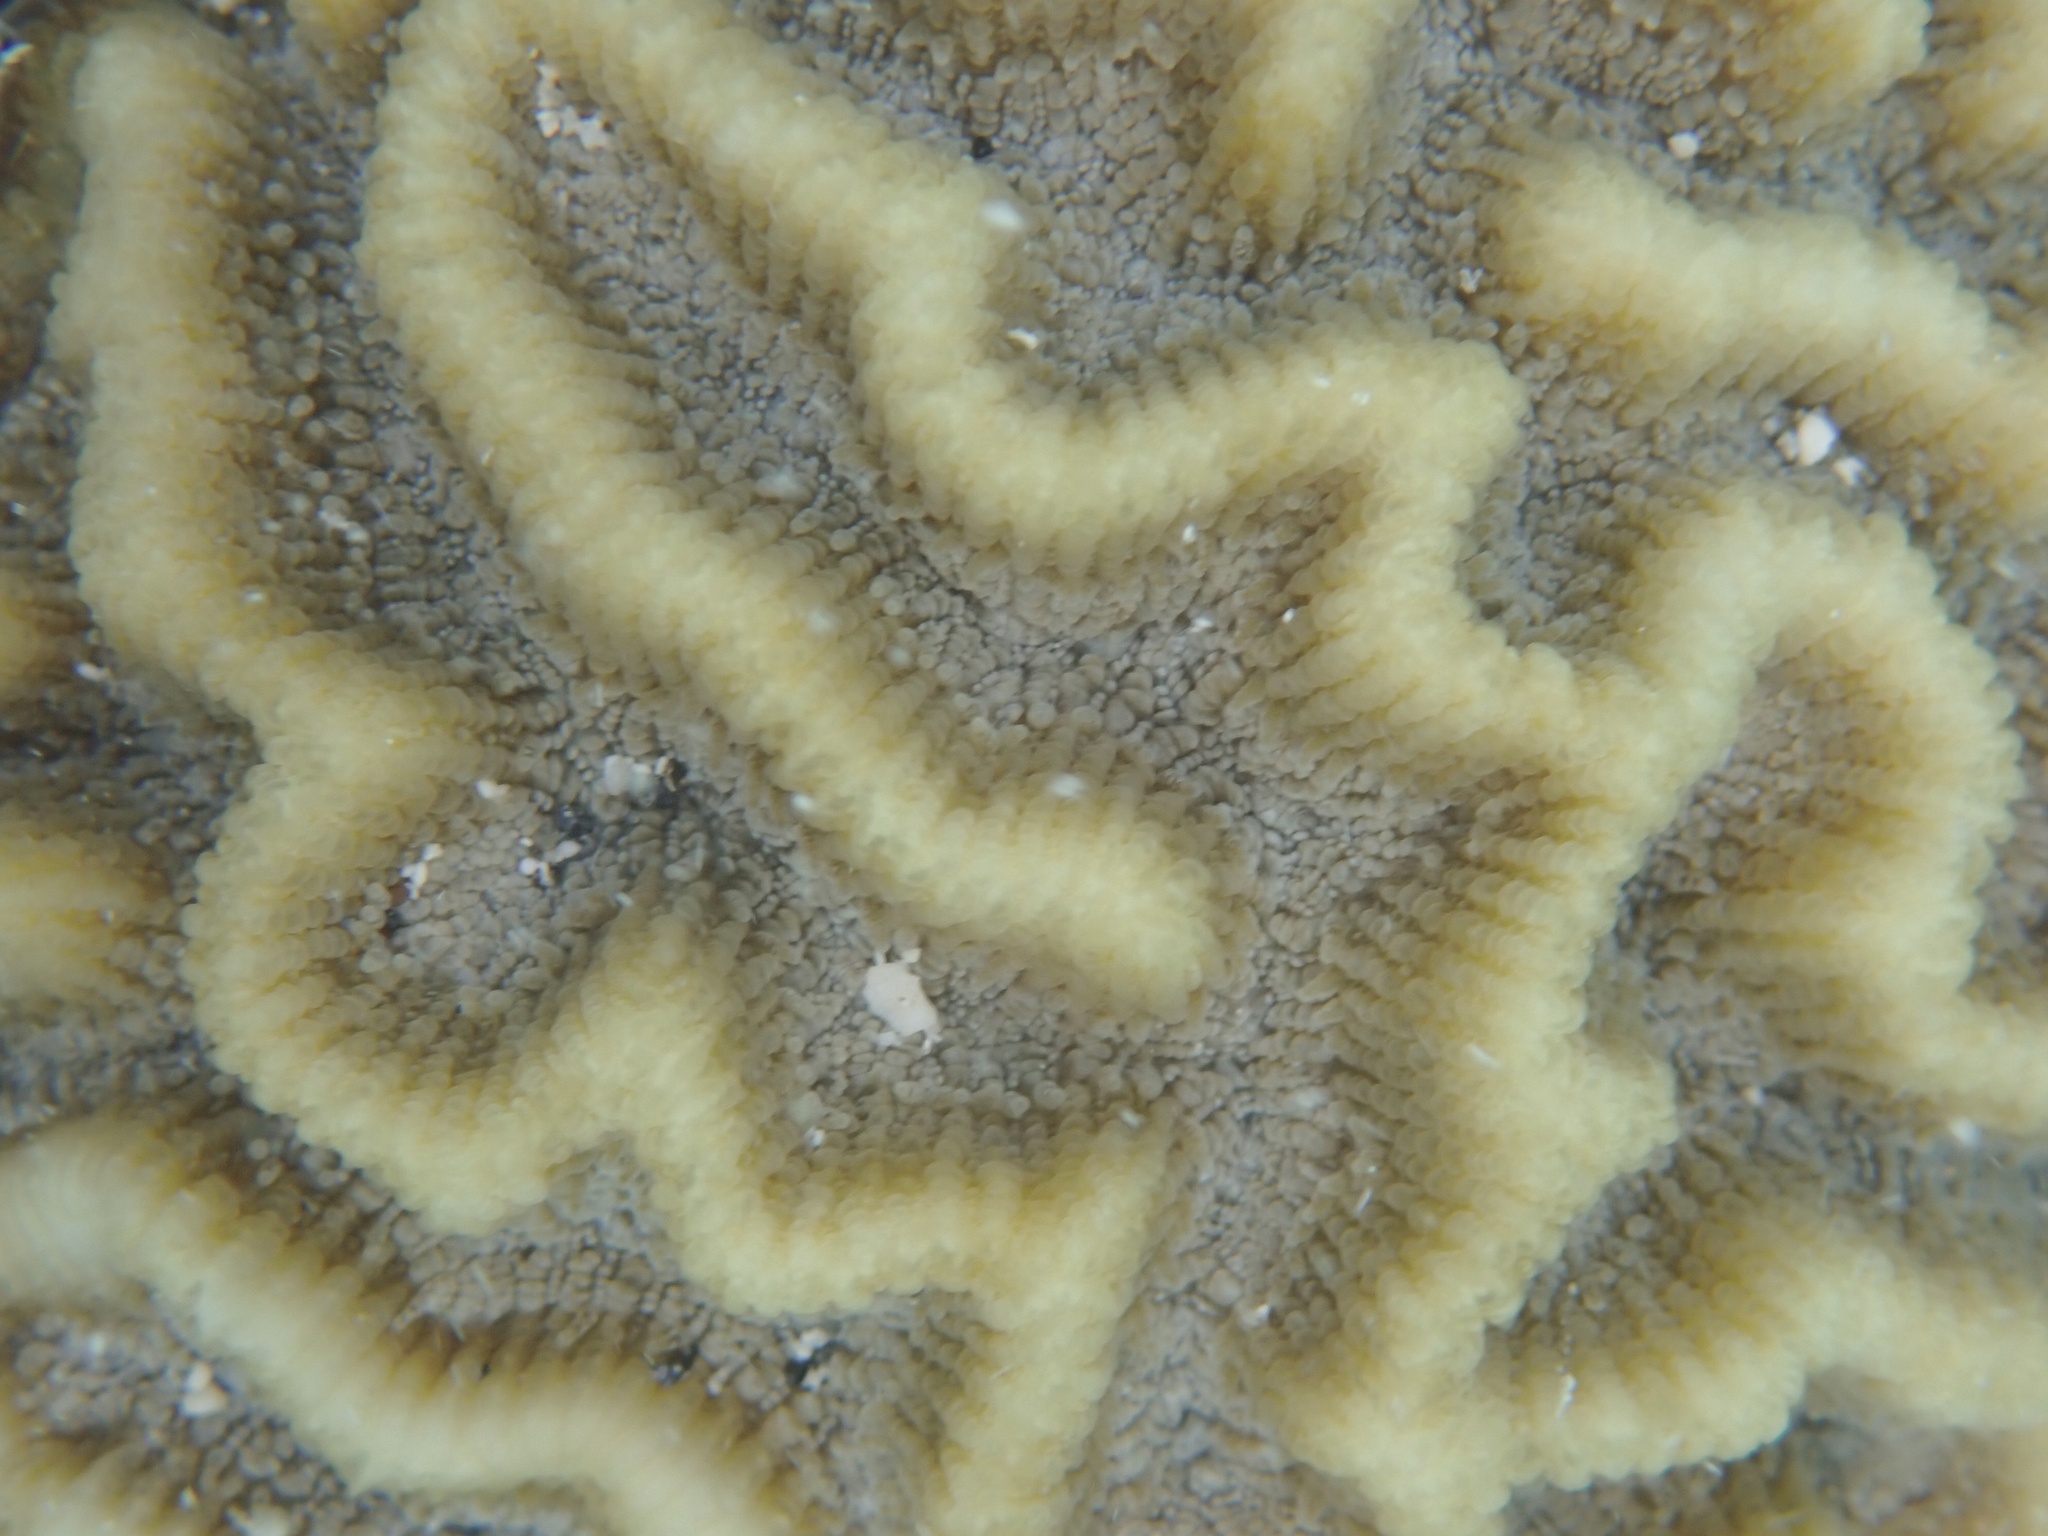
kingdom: Animalia
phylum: Cnidaria
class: Anthozoa
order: Scleractinia
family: Faviidae
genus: Pseudodiploria
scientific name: Pseudodiploria strigosa
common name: Symmetrical brain coral
